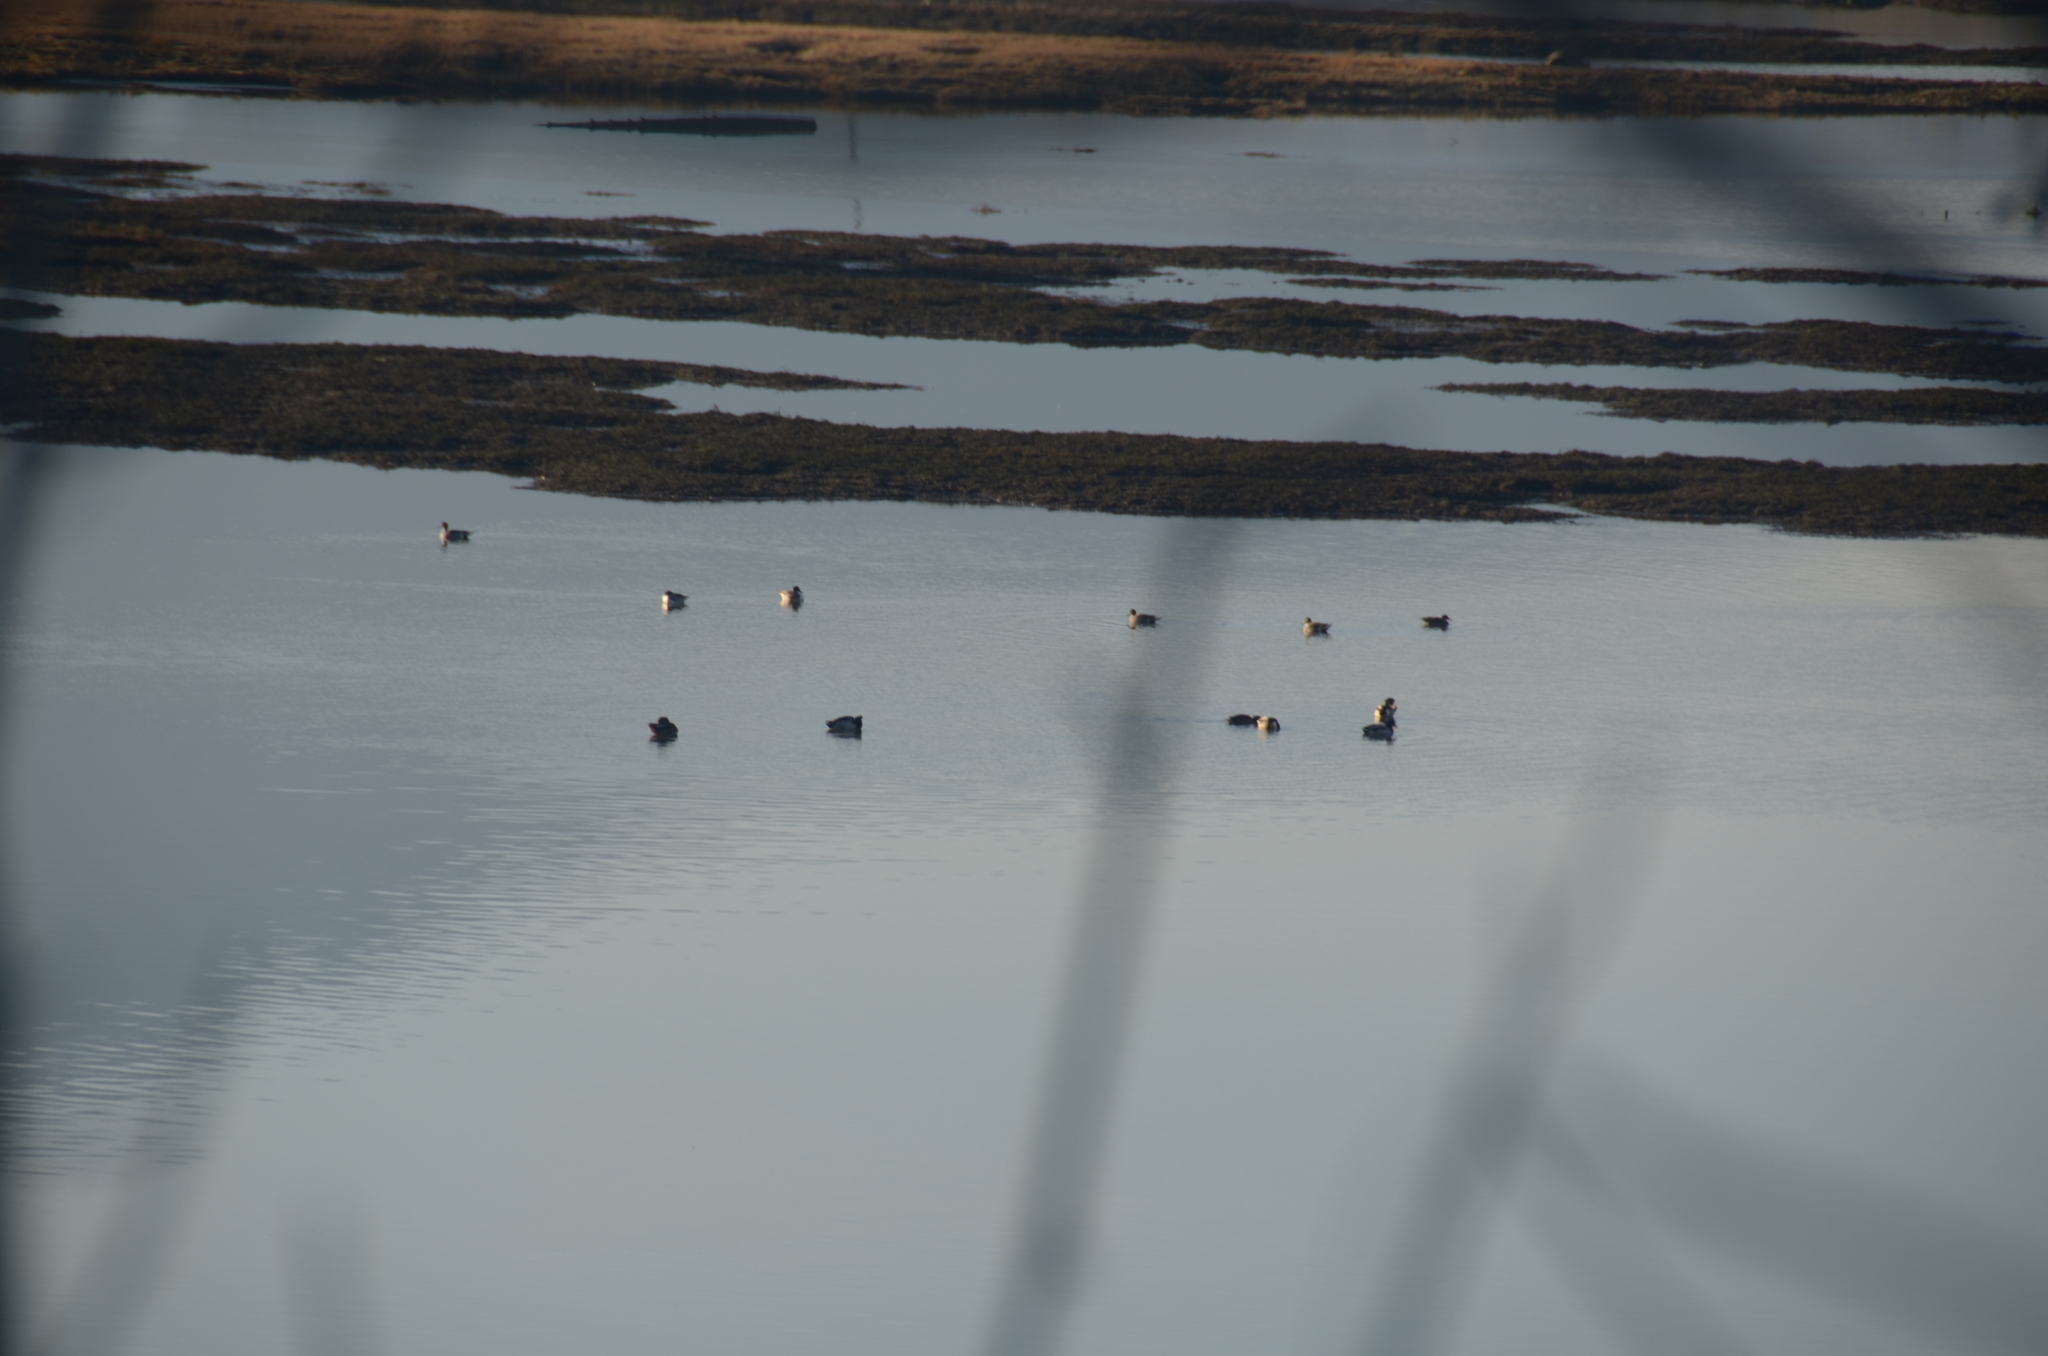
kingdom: Animalia
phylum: Chordata
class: Aves
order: Anseriformes
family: Anatidae
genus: Anas
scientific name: Anas acuta
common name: Northern pintail
